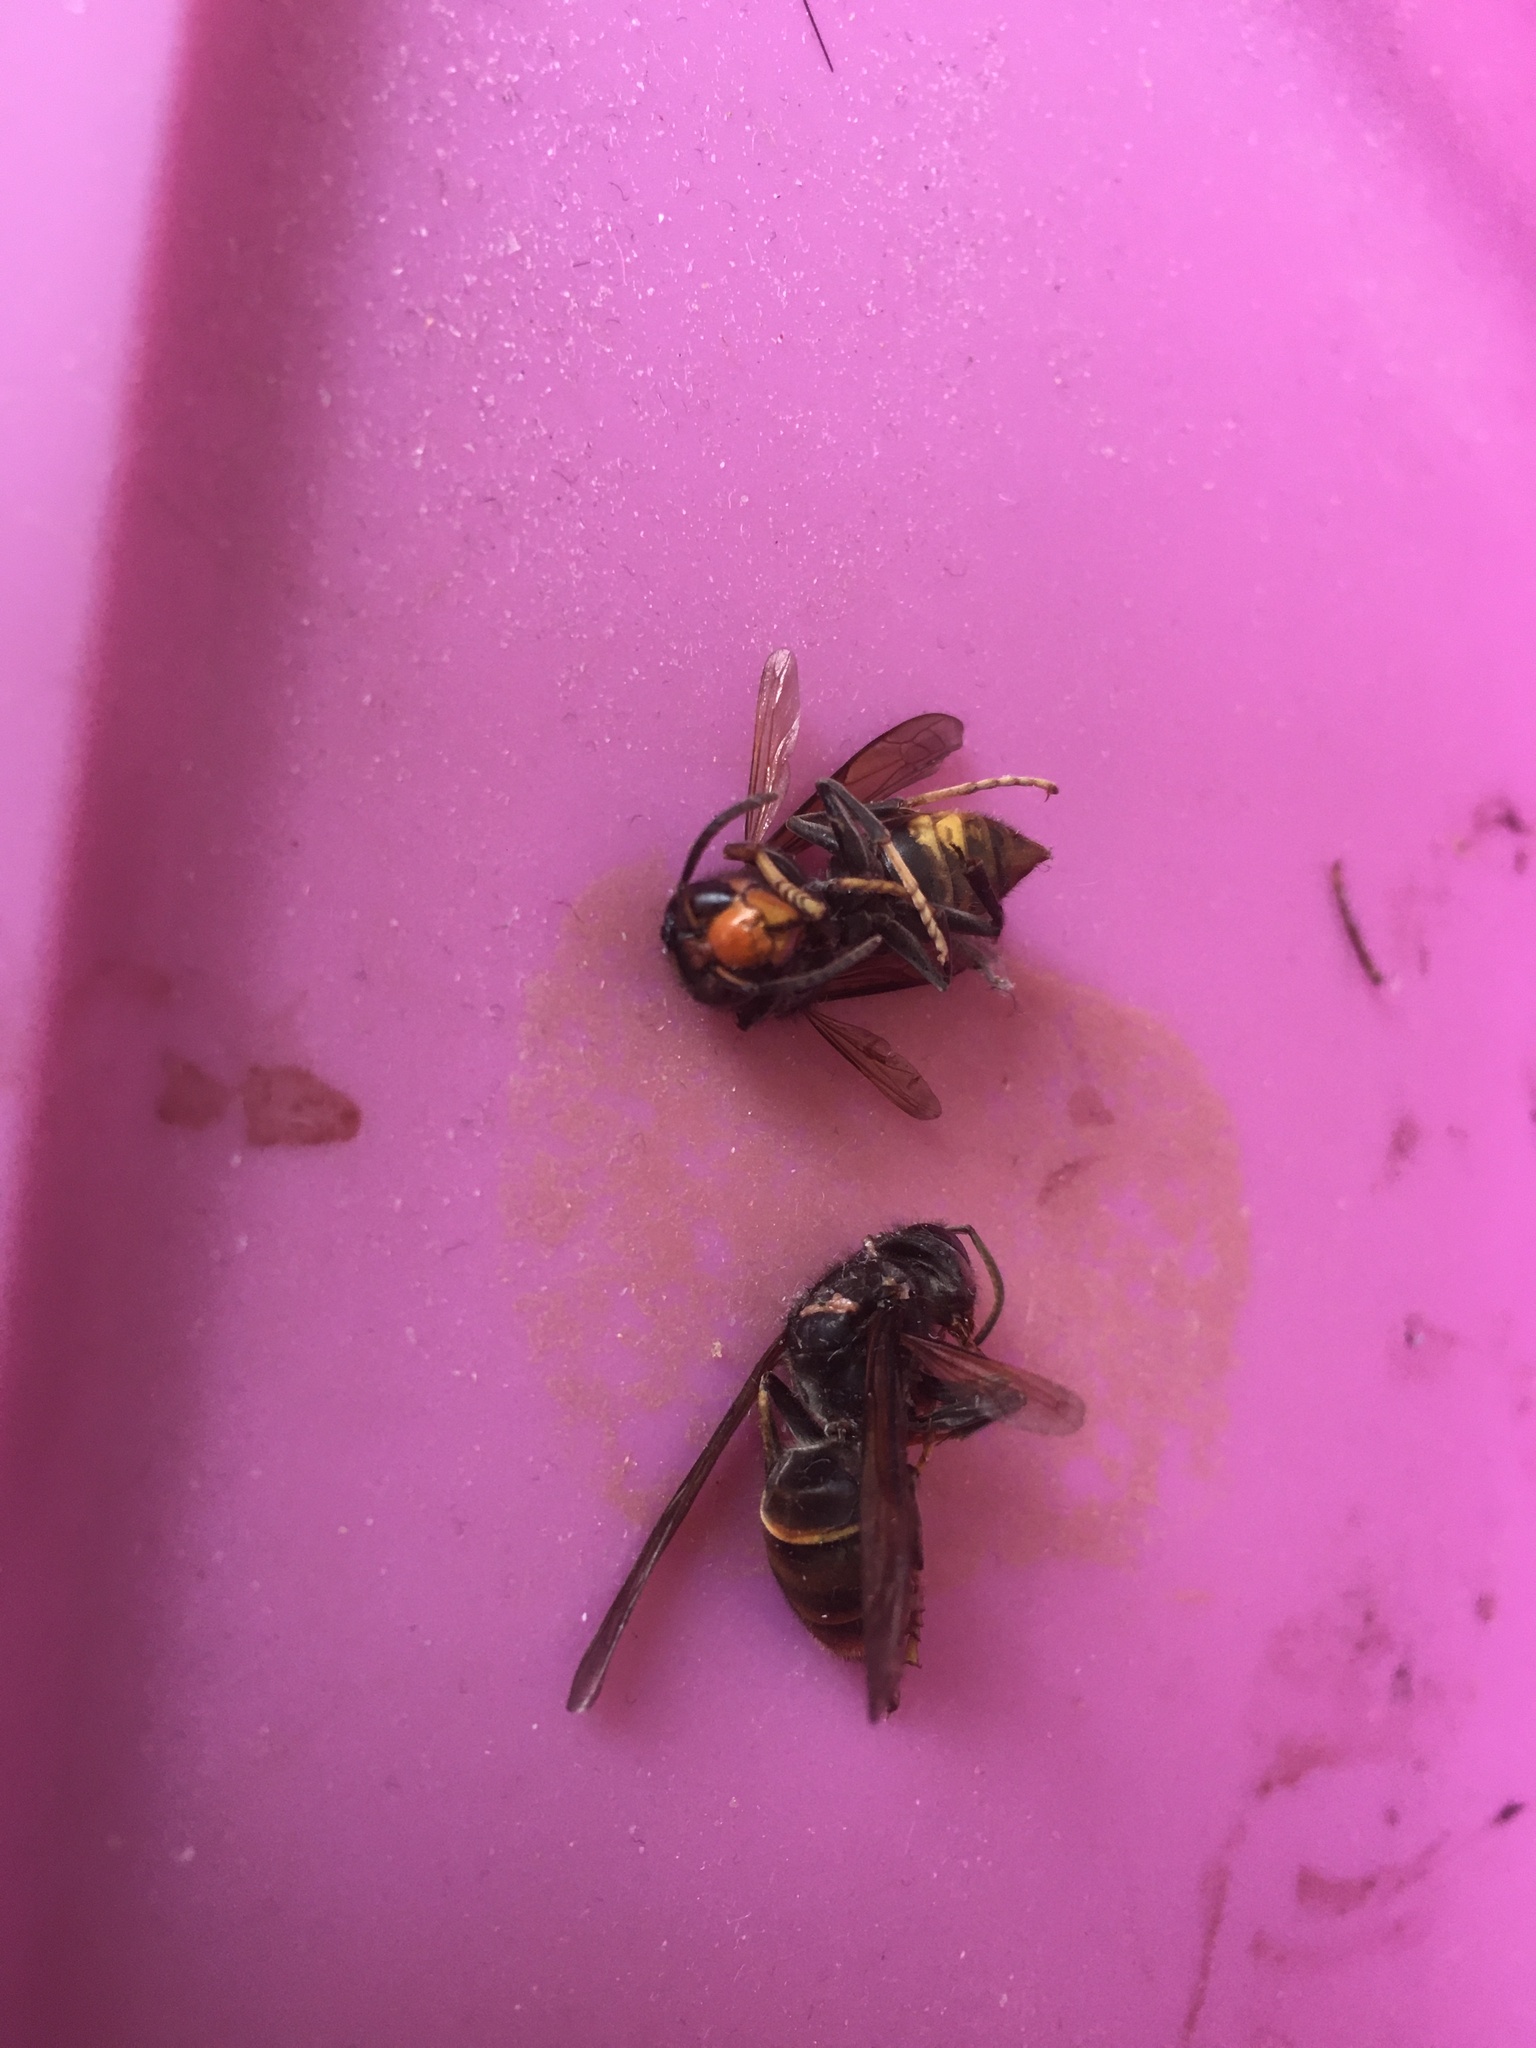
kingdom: Animalia
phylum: Arthropoda
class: Insecta
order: Hymenoptera
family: Vespidae
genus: Vespa
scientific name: Vespa velutina
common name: Asian hornet
